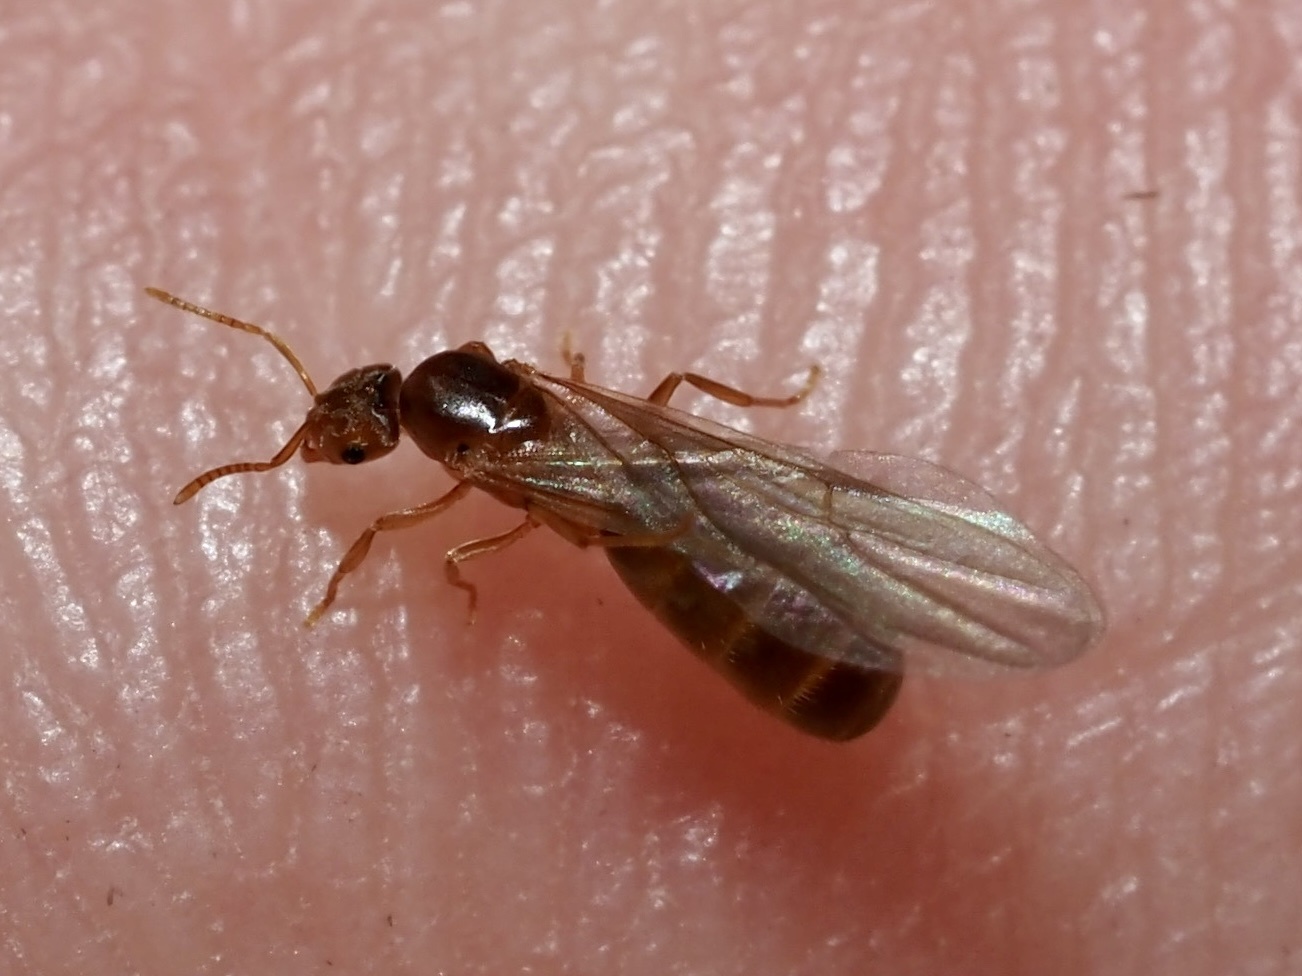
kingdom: Animalia
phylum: Arthropoda
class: Insecta
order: Hymenoptera
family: Formicidae
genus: Brachymyrmex
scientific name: Brachymyrmex depilis
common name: Hairless rover ant
